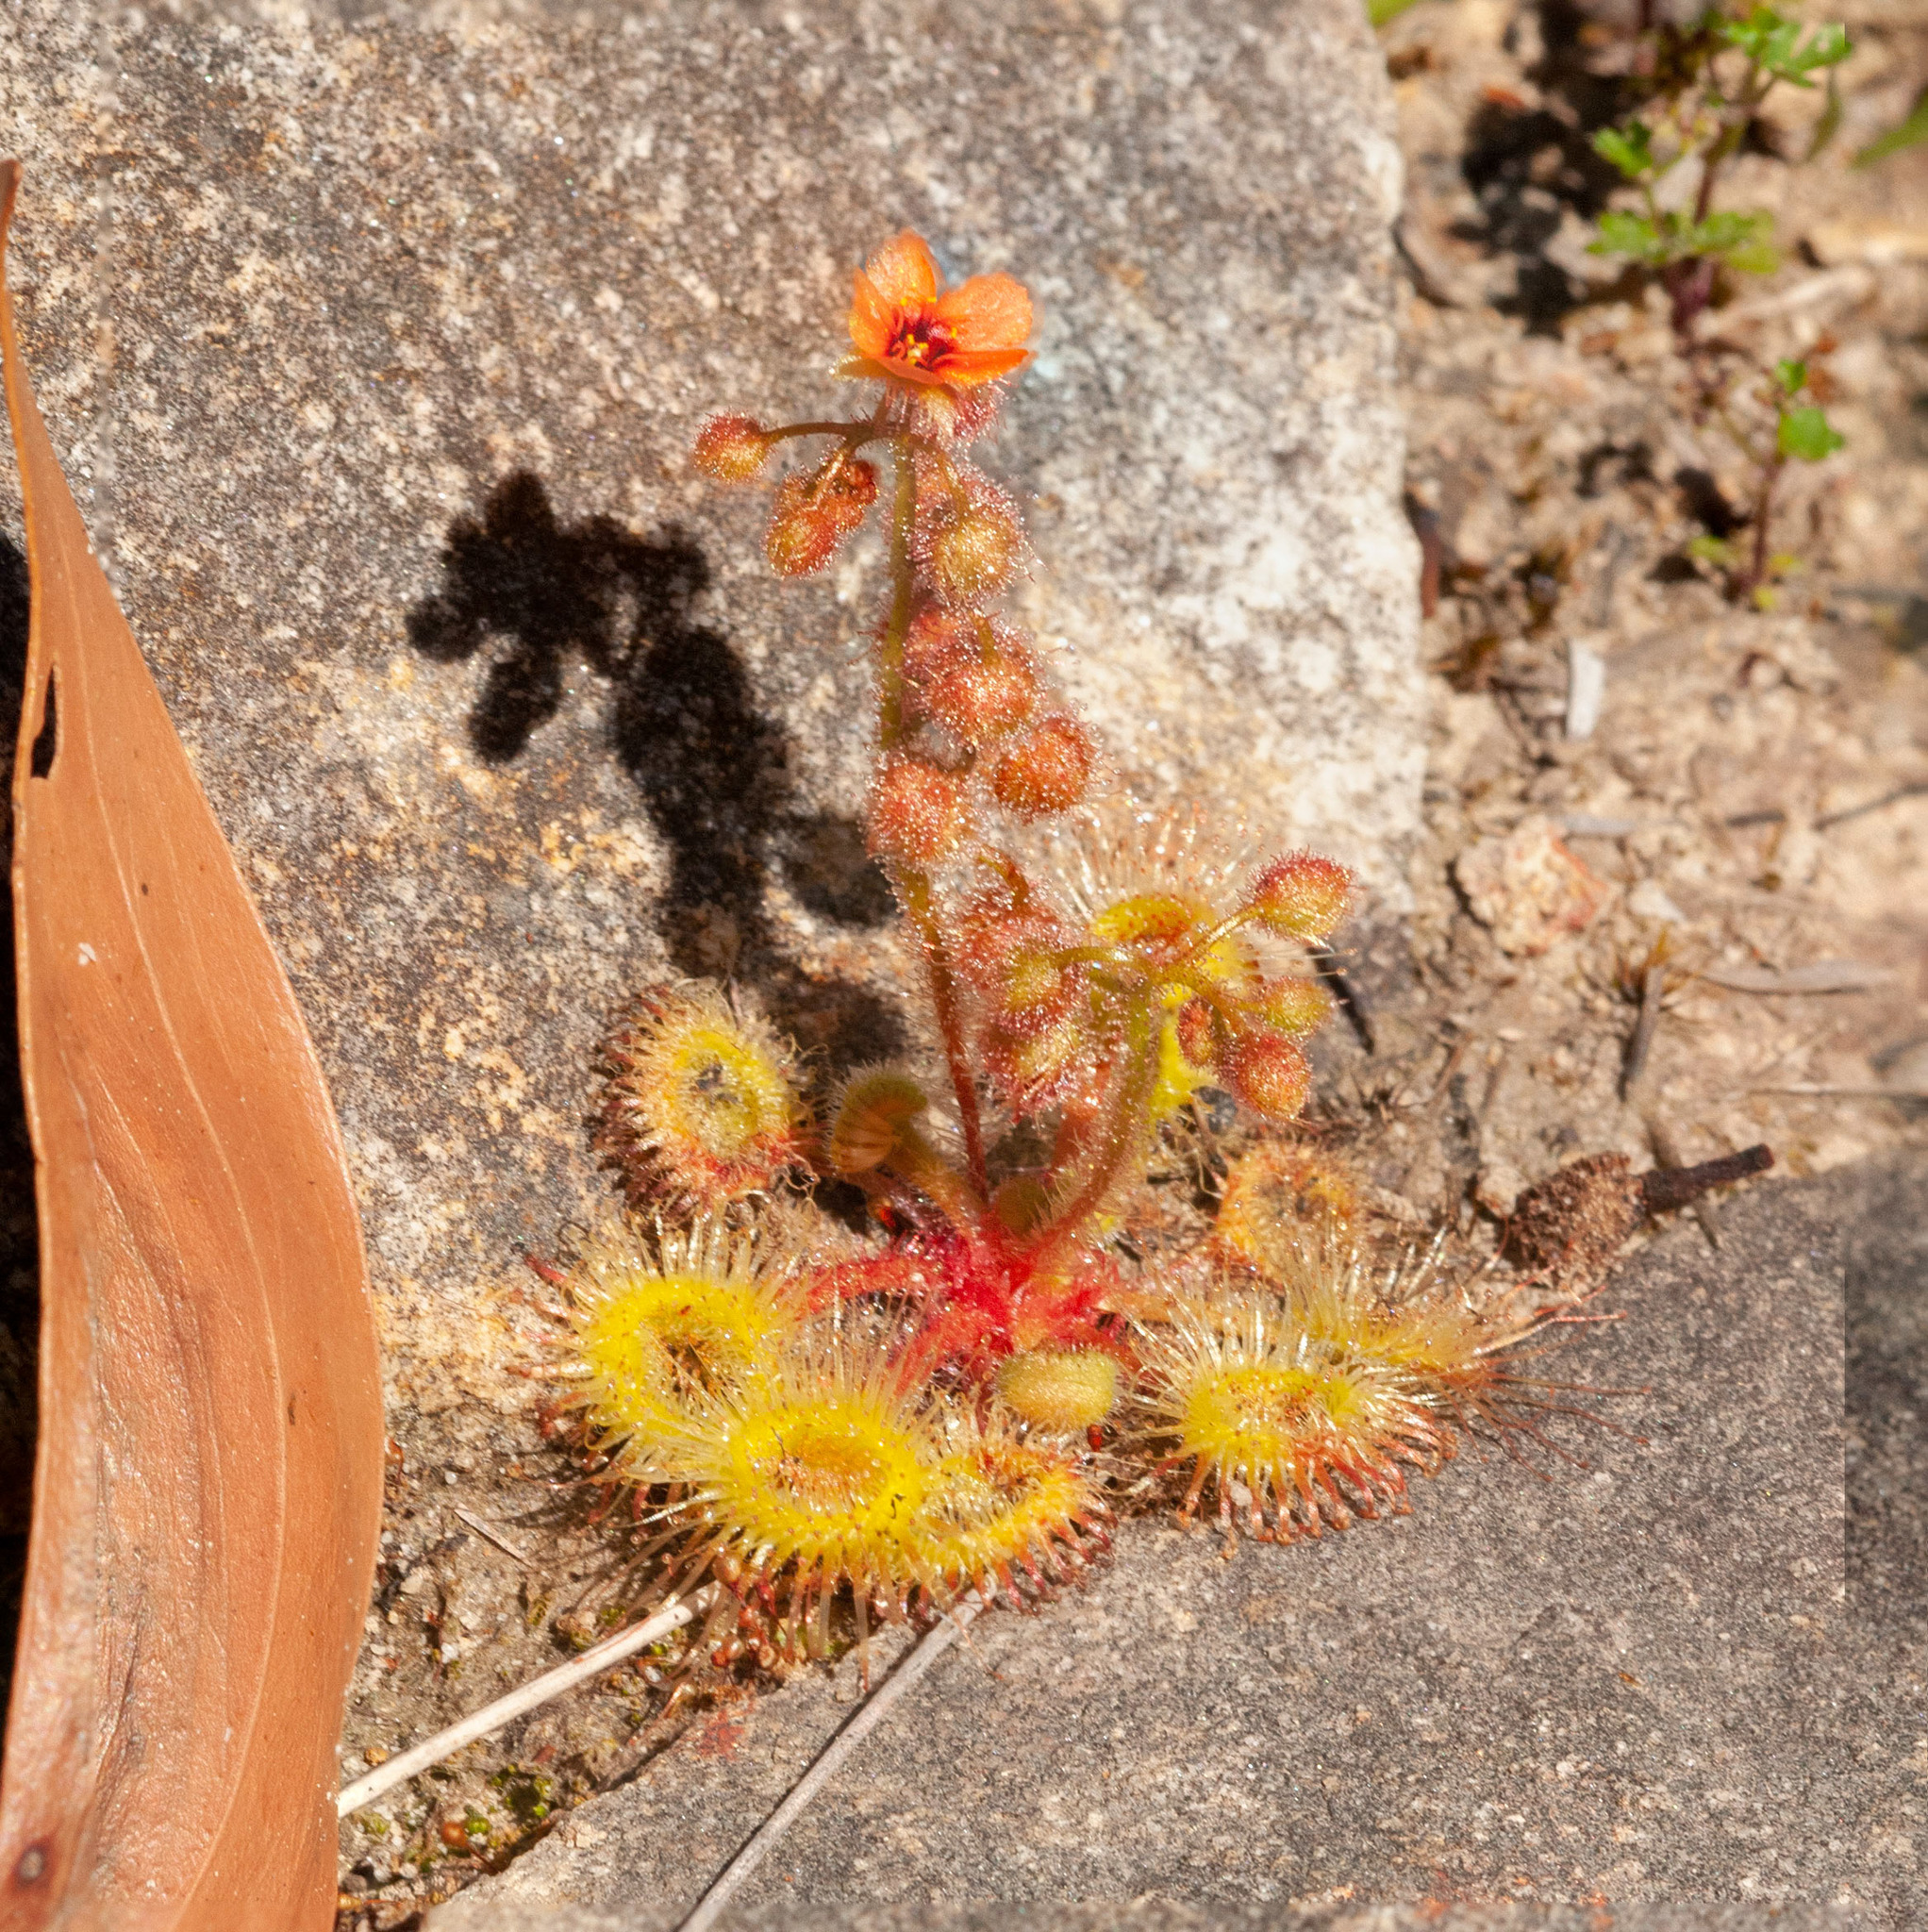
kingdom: Plantae
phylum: Tracheophyta
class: Magnoliopsida
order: Caryophyllales
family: Droseraceae
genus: Drosera
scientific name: Drosera glanduligera
